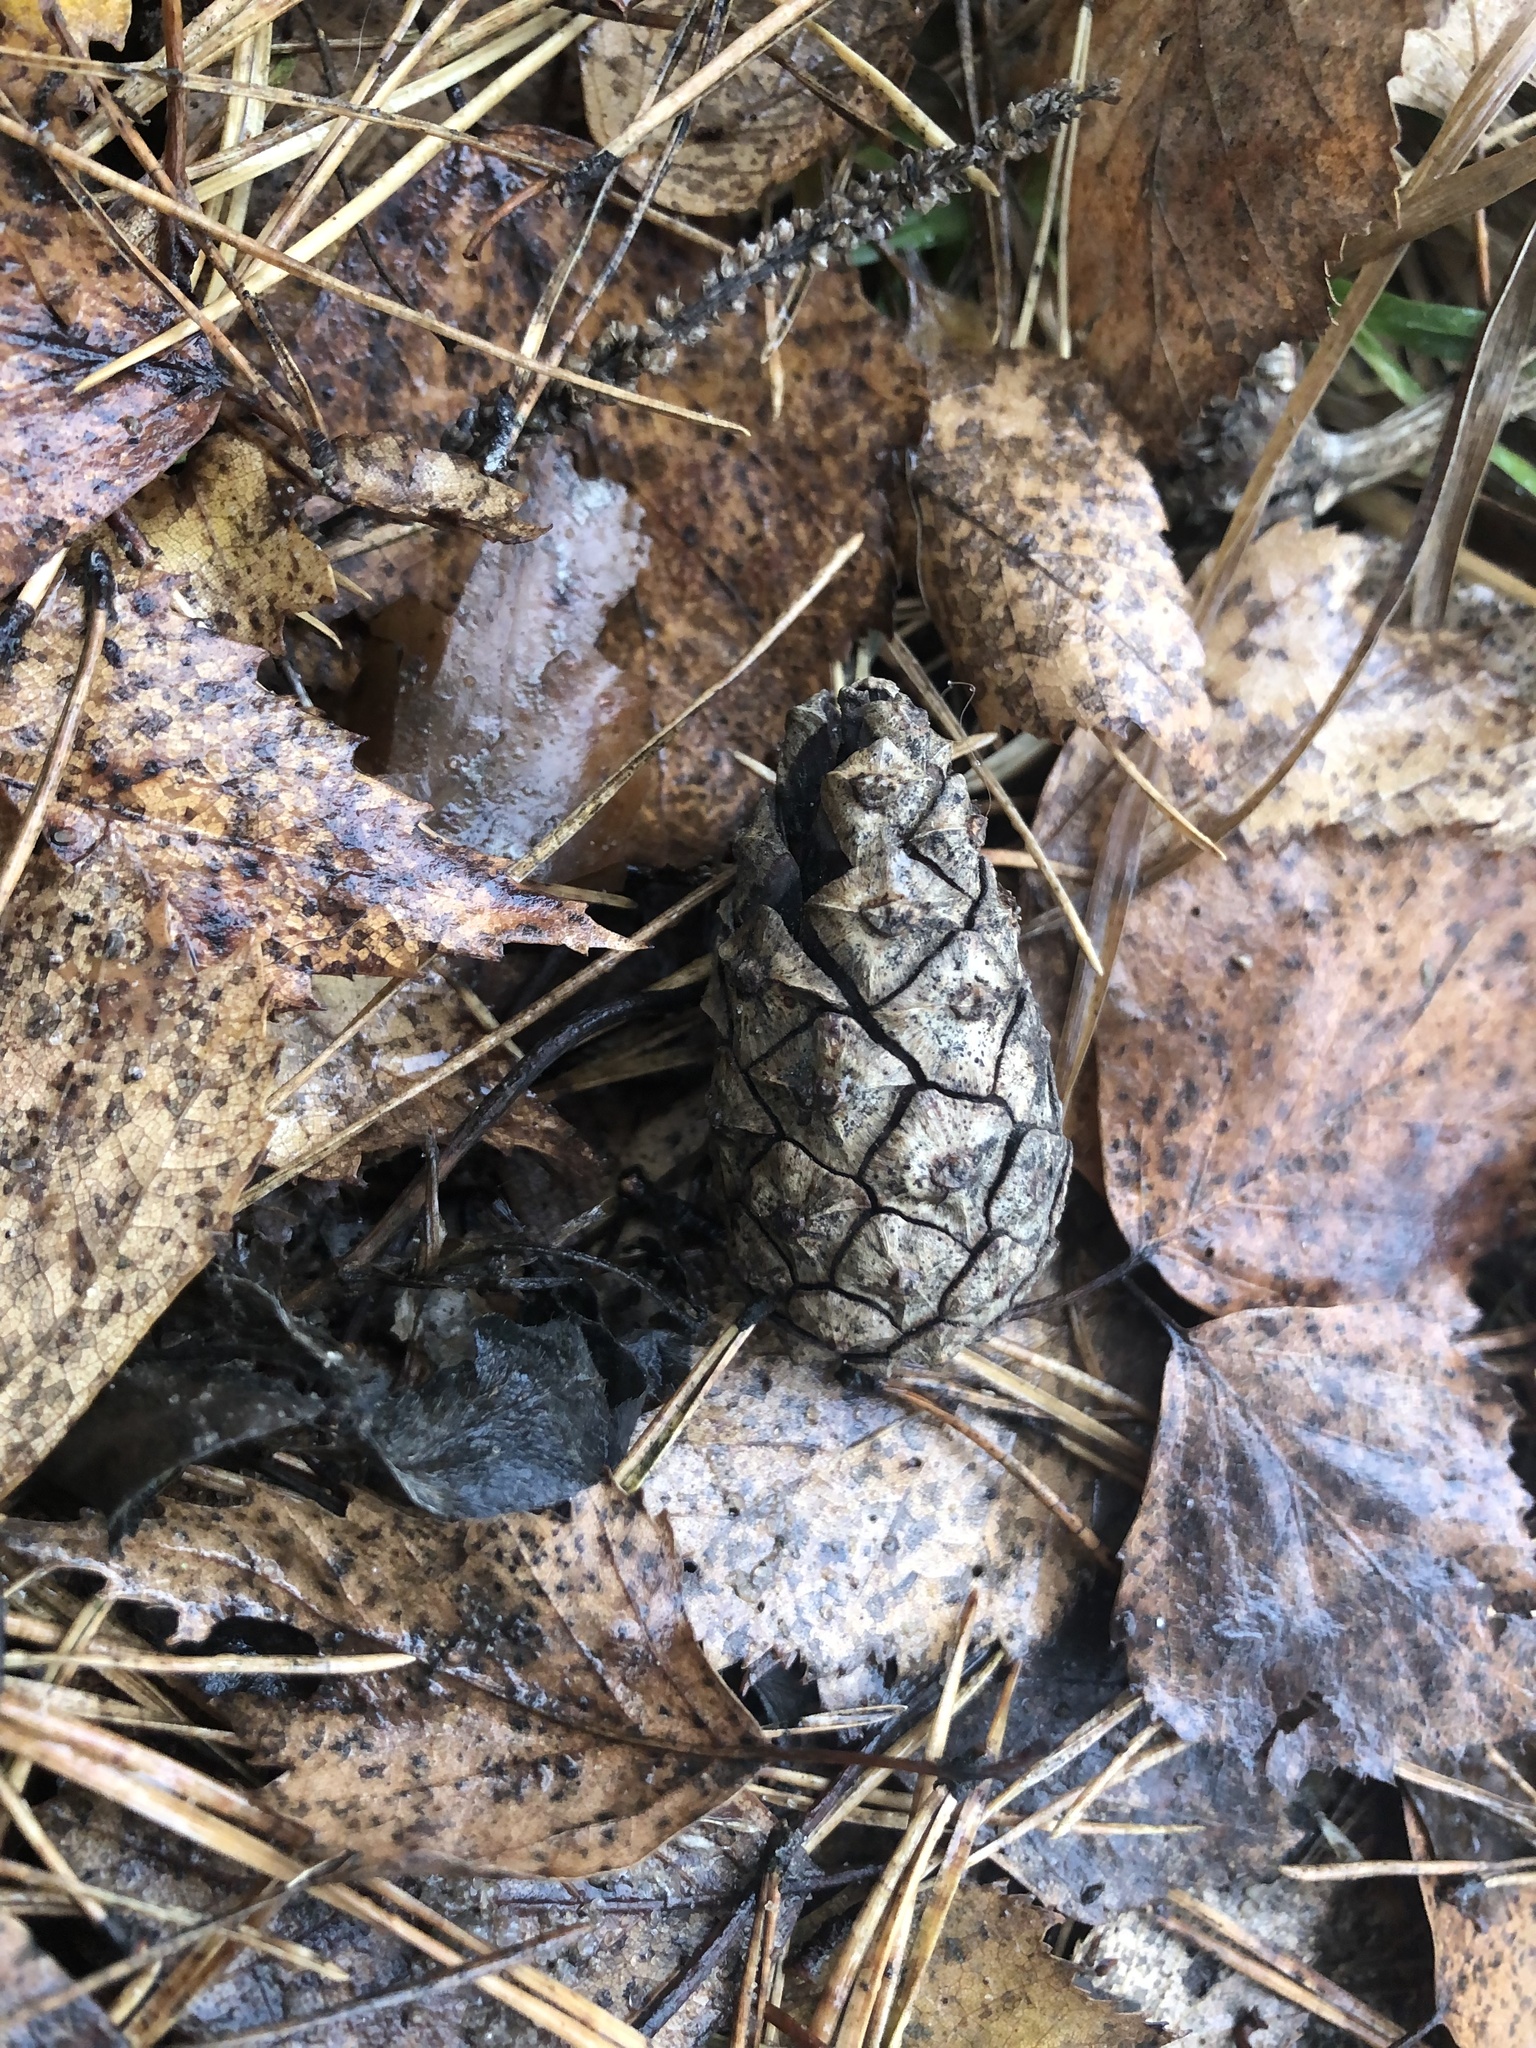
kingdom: Plantae
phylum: Tracheophyta
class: Pinopsida
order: Pinales
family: Pinaceae
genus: Pinus
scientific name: Pinus sylvestris
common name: Scots pine
